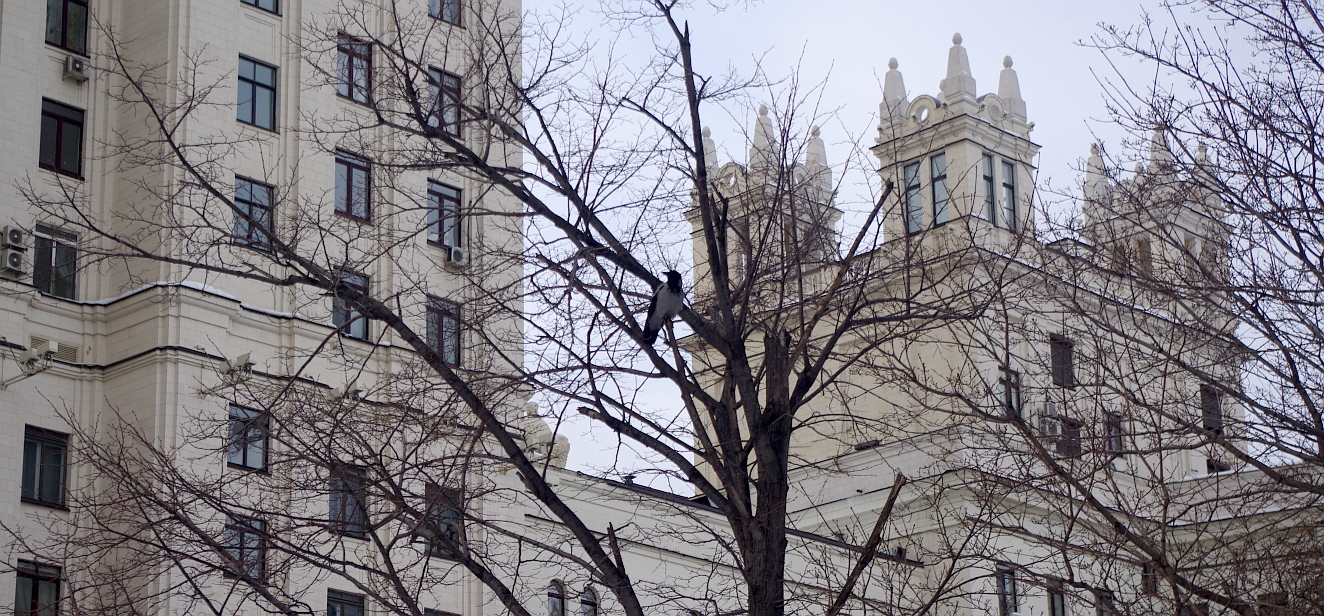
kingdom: Animalia
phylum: Chordata
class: Aves
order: Passeriformes
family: Corvidae
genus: Corvus
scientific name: Corvus cornix
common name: Hooded crow
